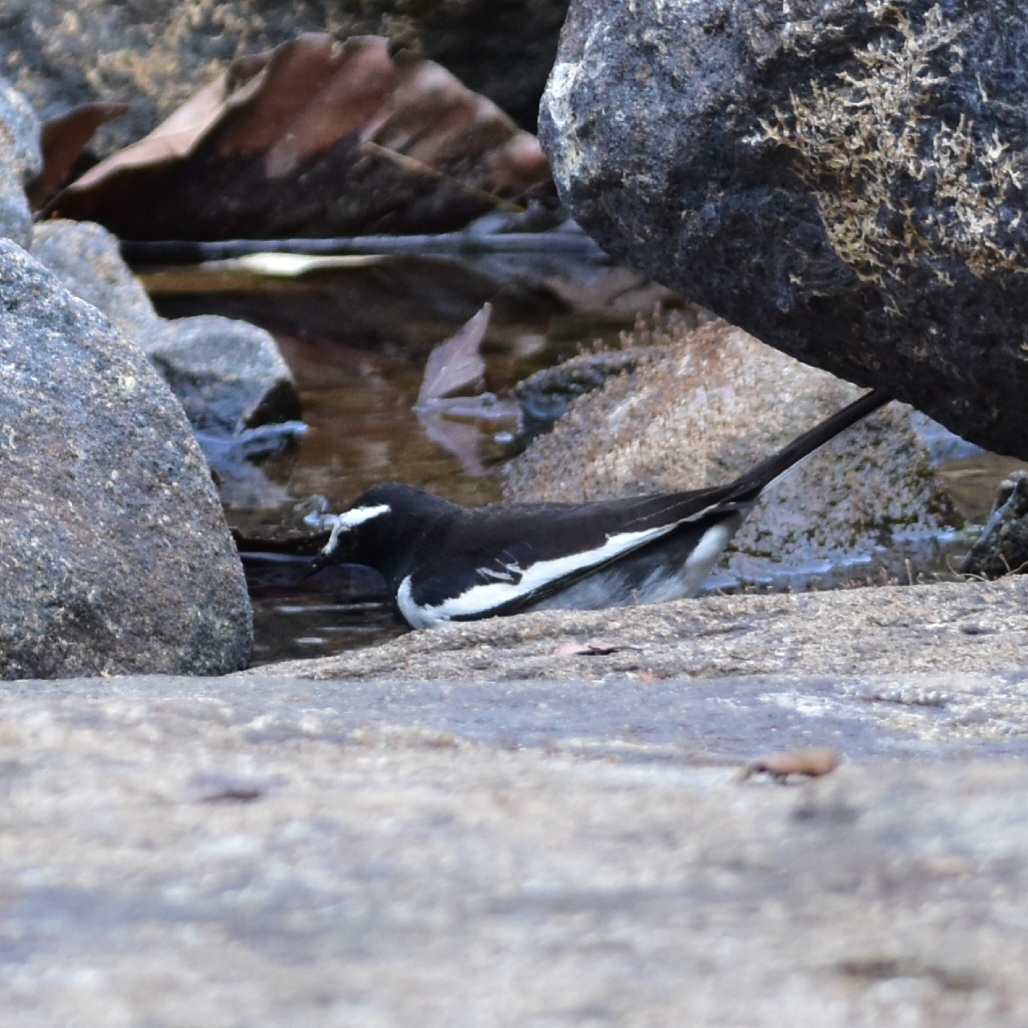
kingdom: Animalia
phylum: Chordata
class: Aves
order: Passeriformes
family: Motacillidae
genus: Motacilla
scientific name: Motacilla maderaspatensis
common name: White-browed wagtail
